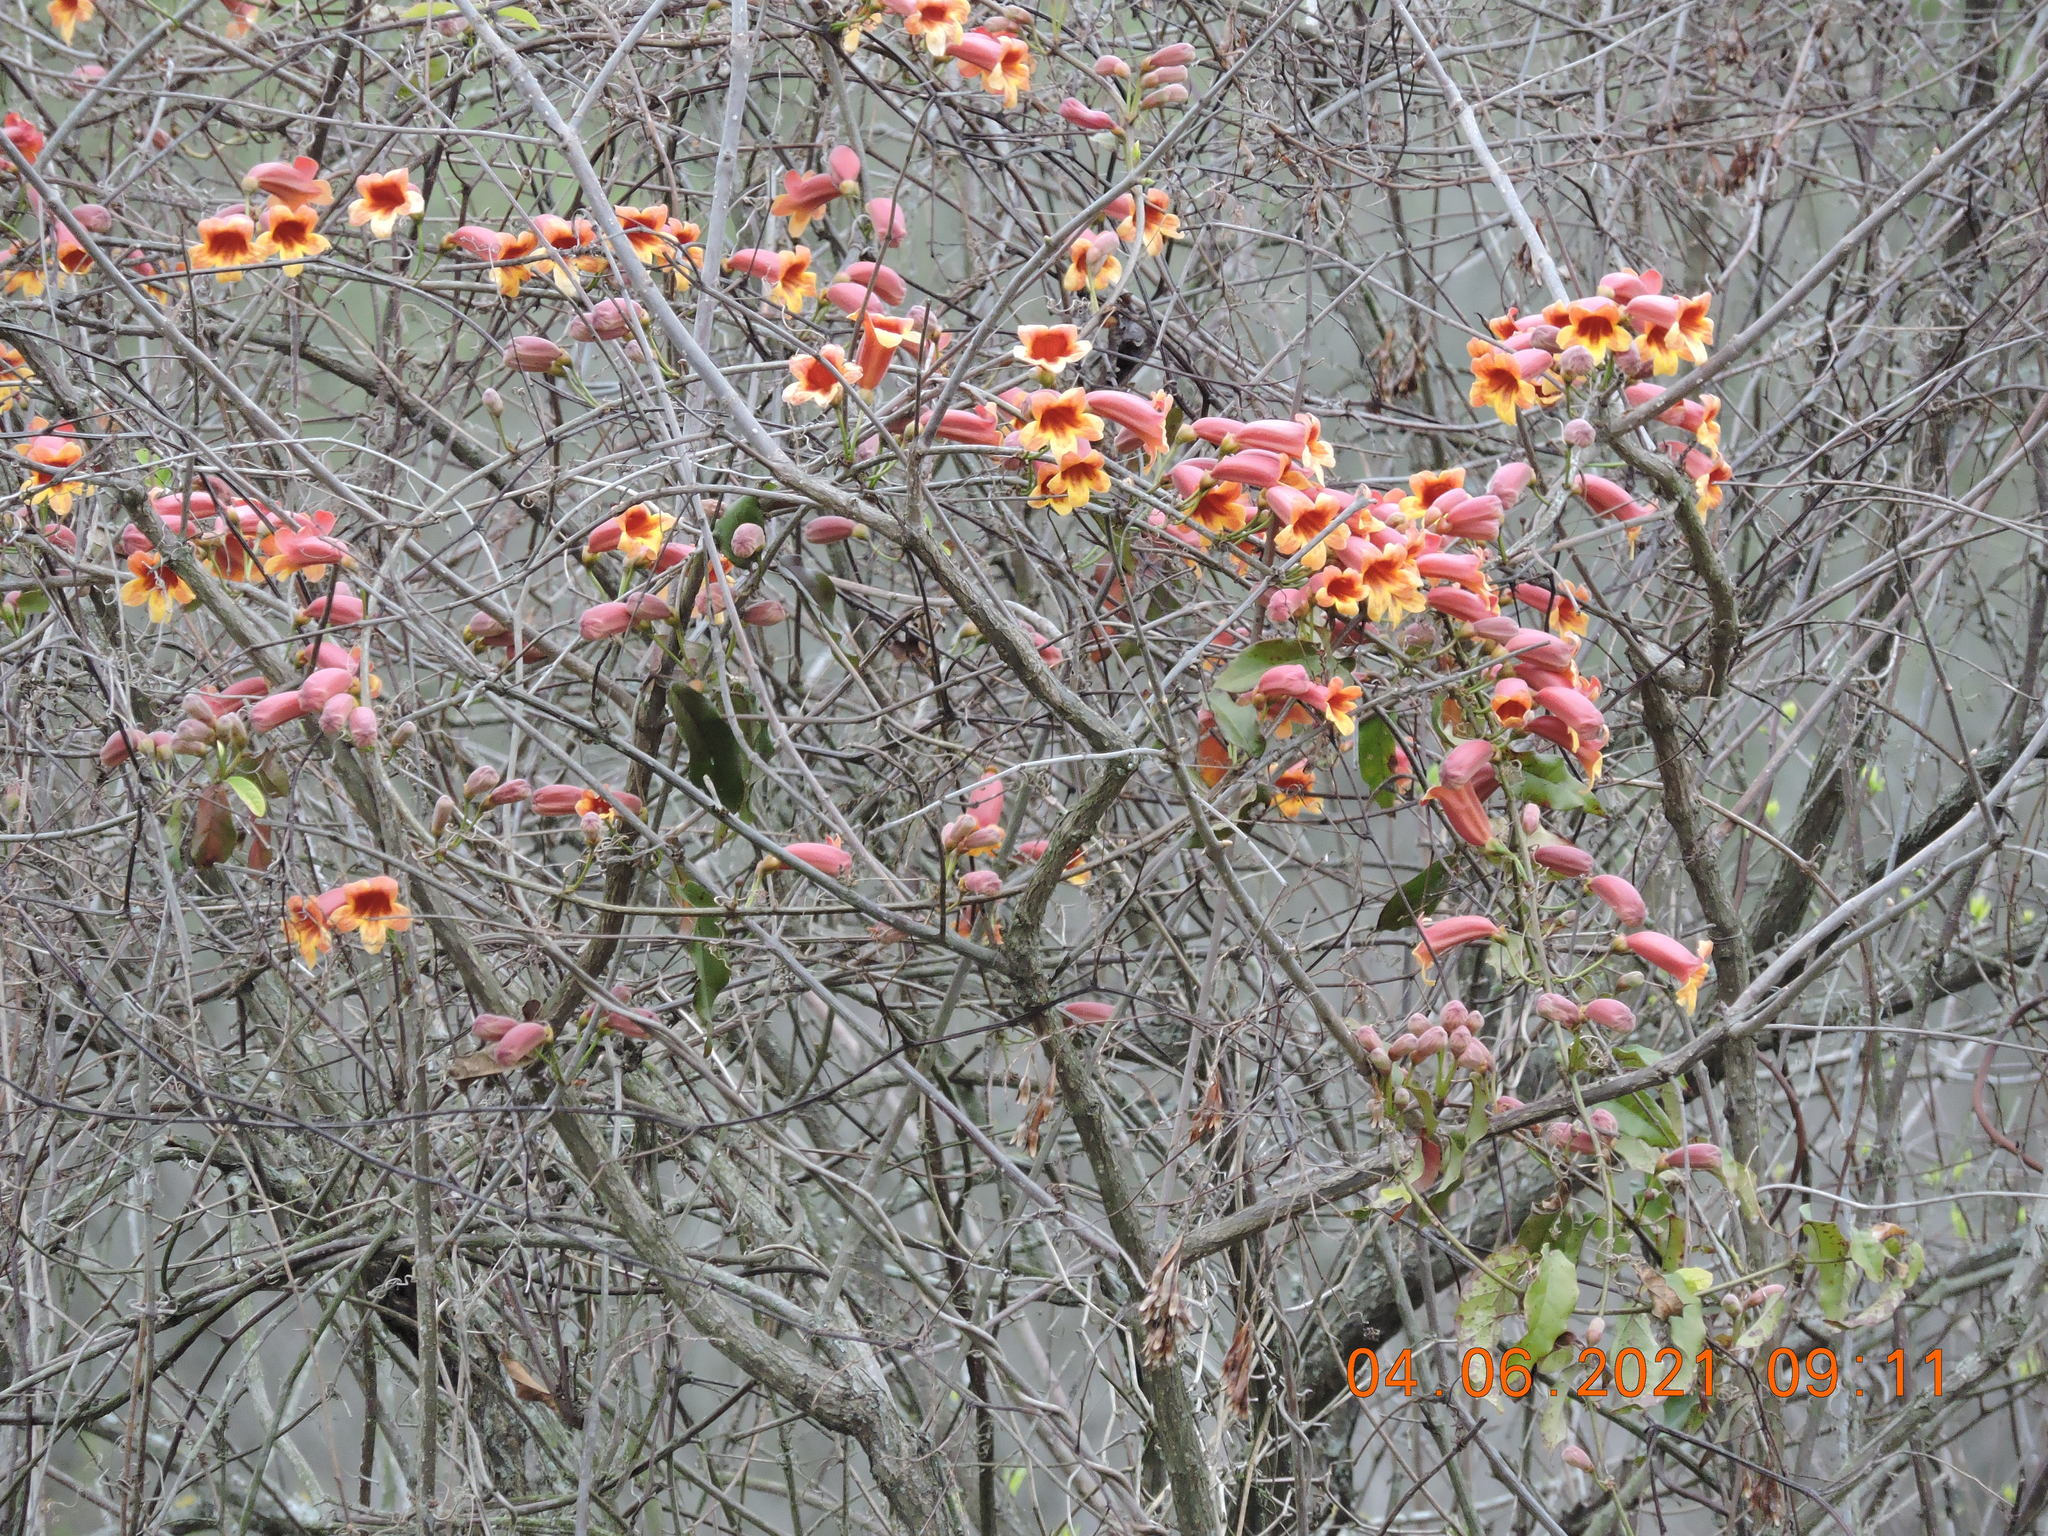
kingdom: Plantae
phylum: Tracheophyta
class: Magnoliopsida
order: Lamiales
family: Bignoniaceae
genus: Bignonia
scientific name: Bignonia capreolata
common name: Crossvine
